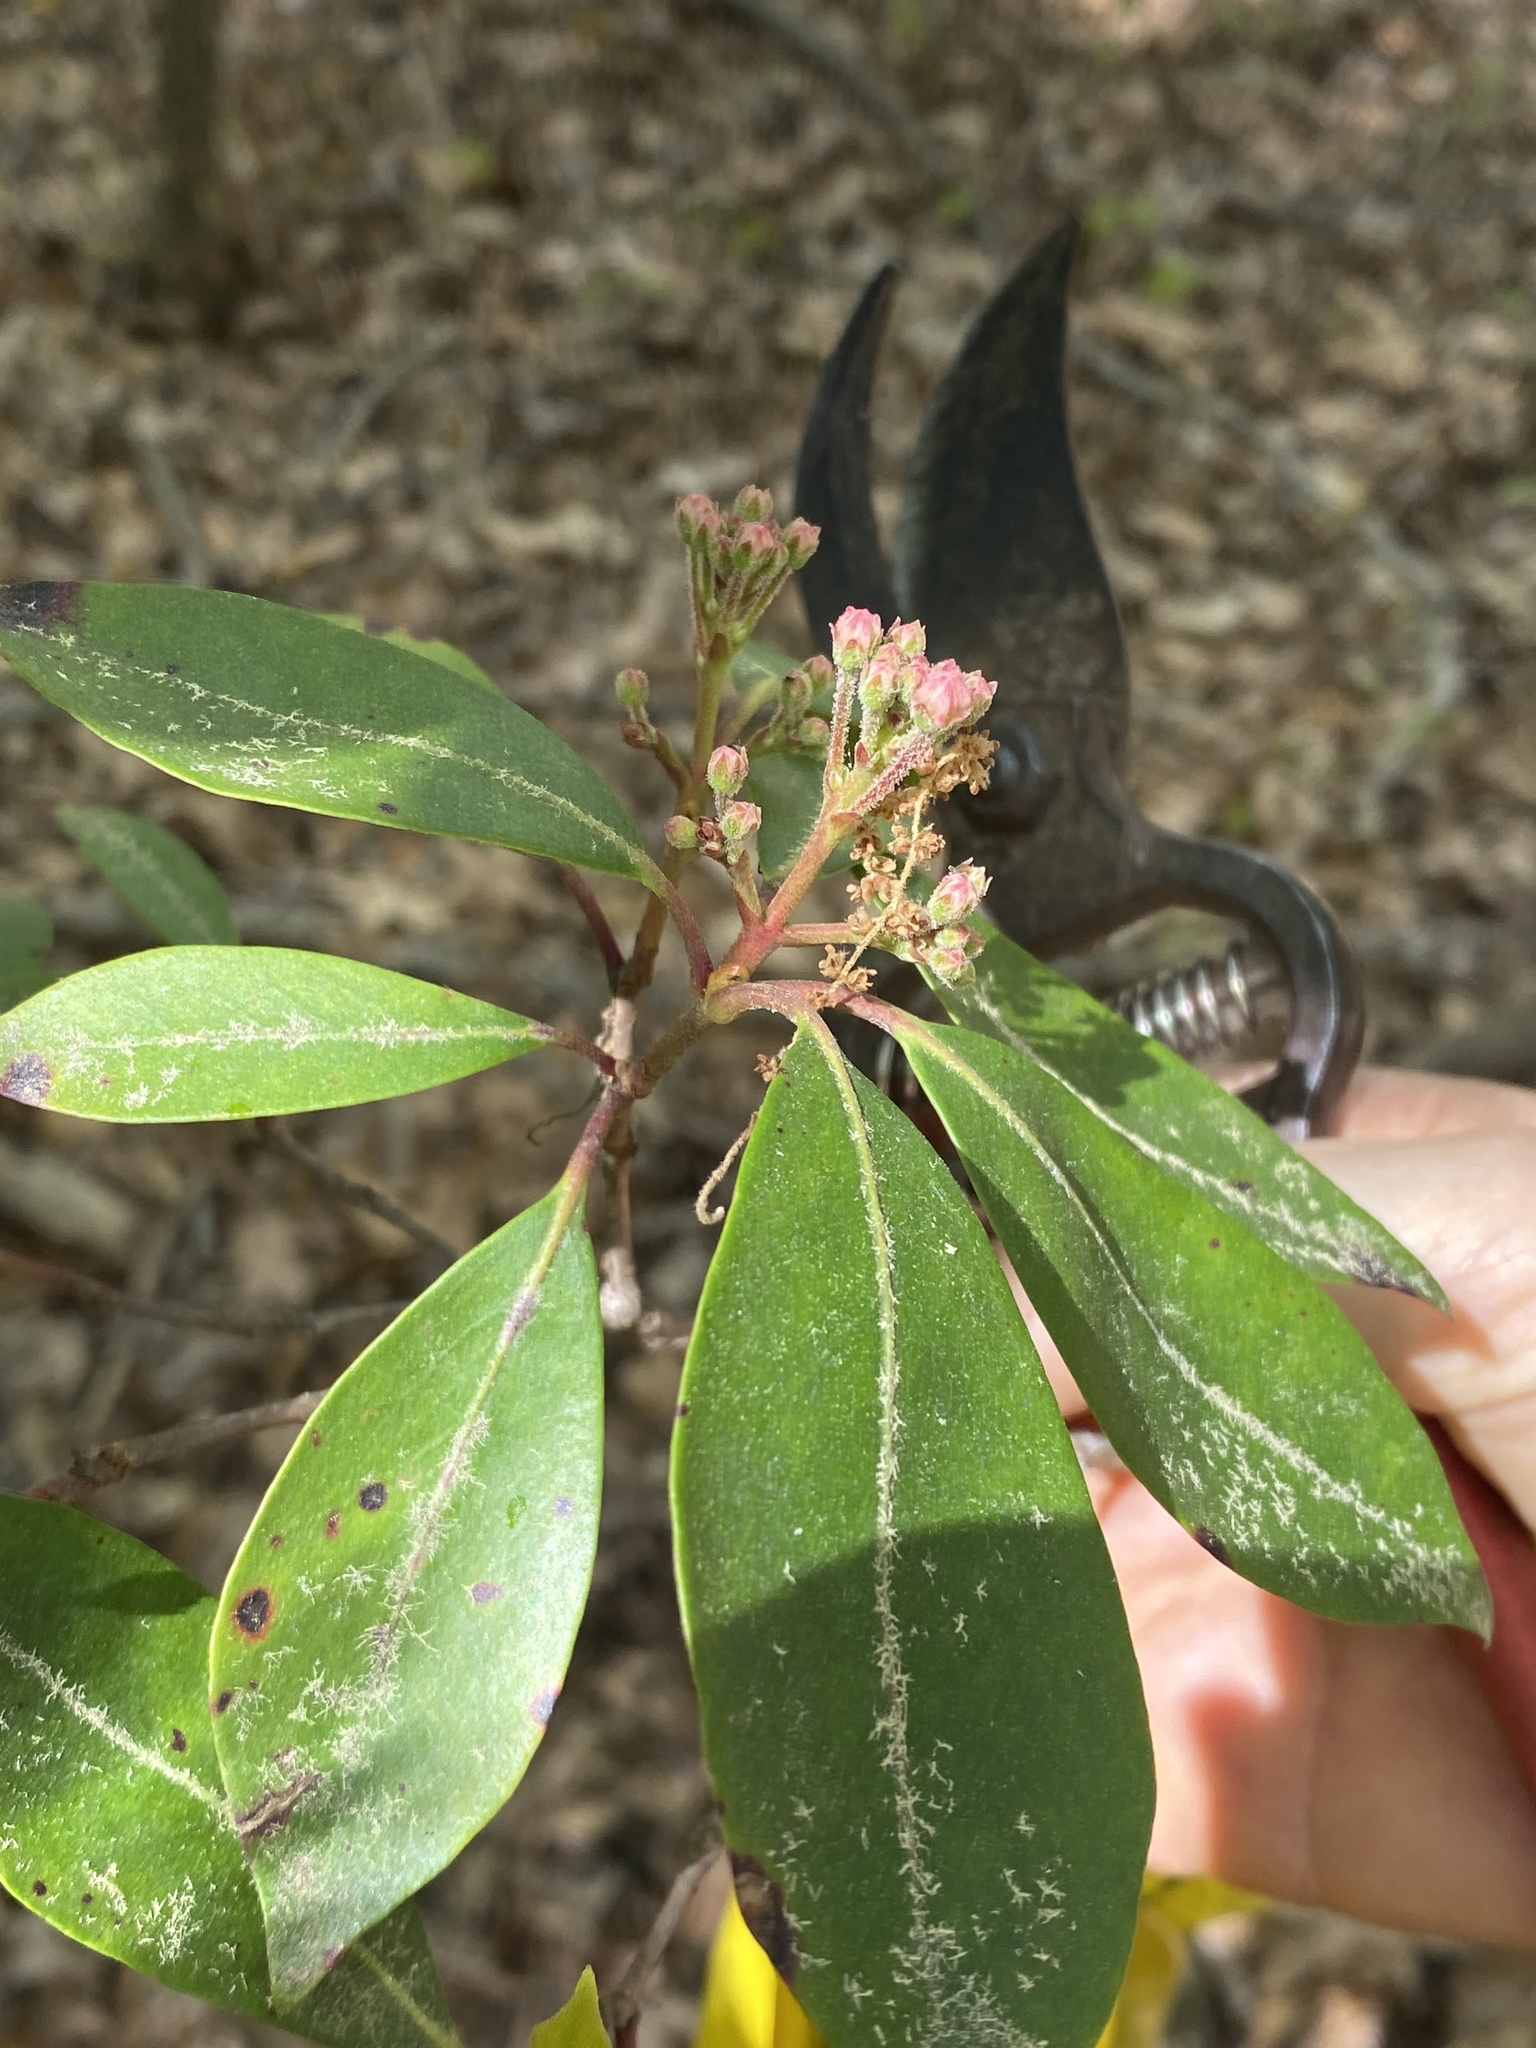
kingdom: Plantae
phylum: Tracheophyta
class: Magnoliopsida
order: Ericales
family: Ericaceae
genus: Kalmia
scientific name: Kalmia latifolia
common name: Mountain-laurel
